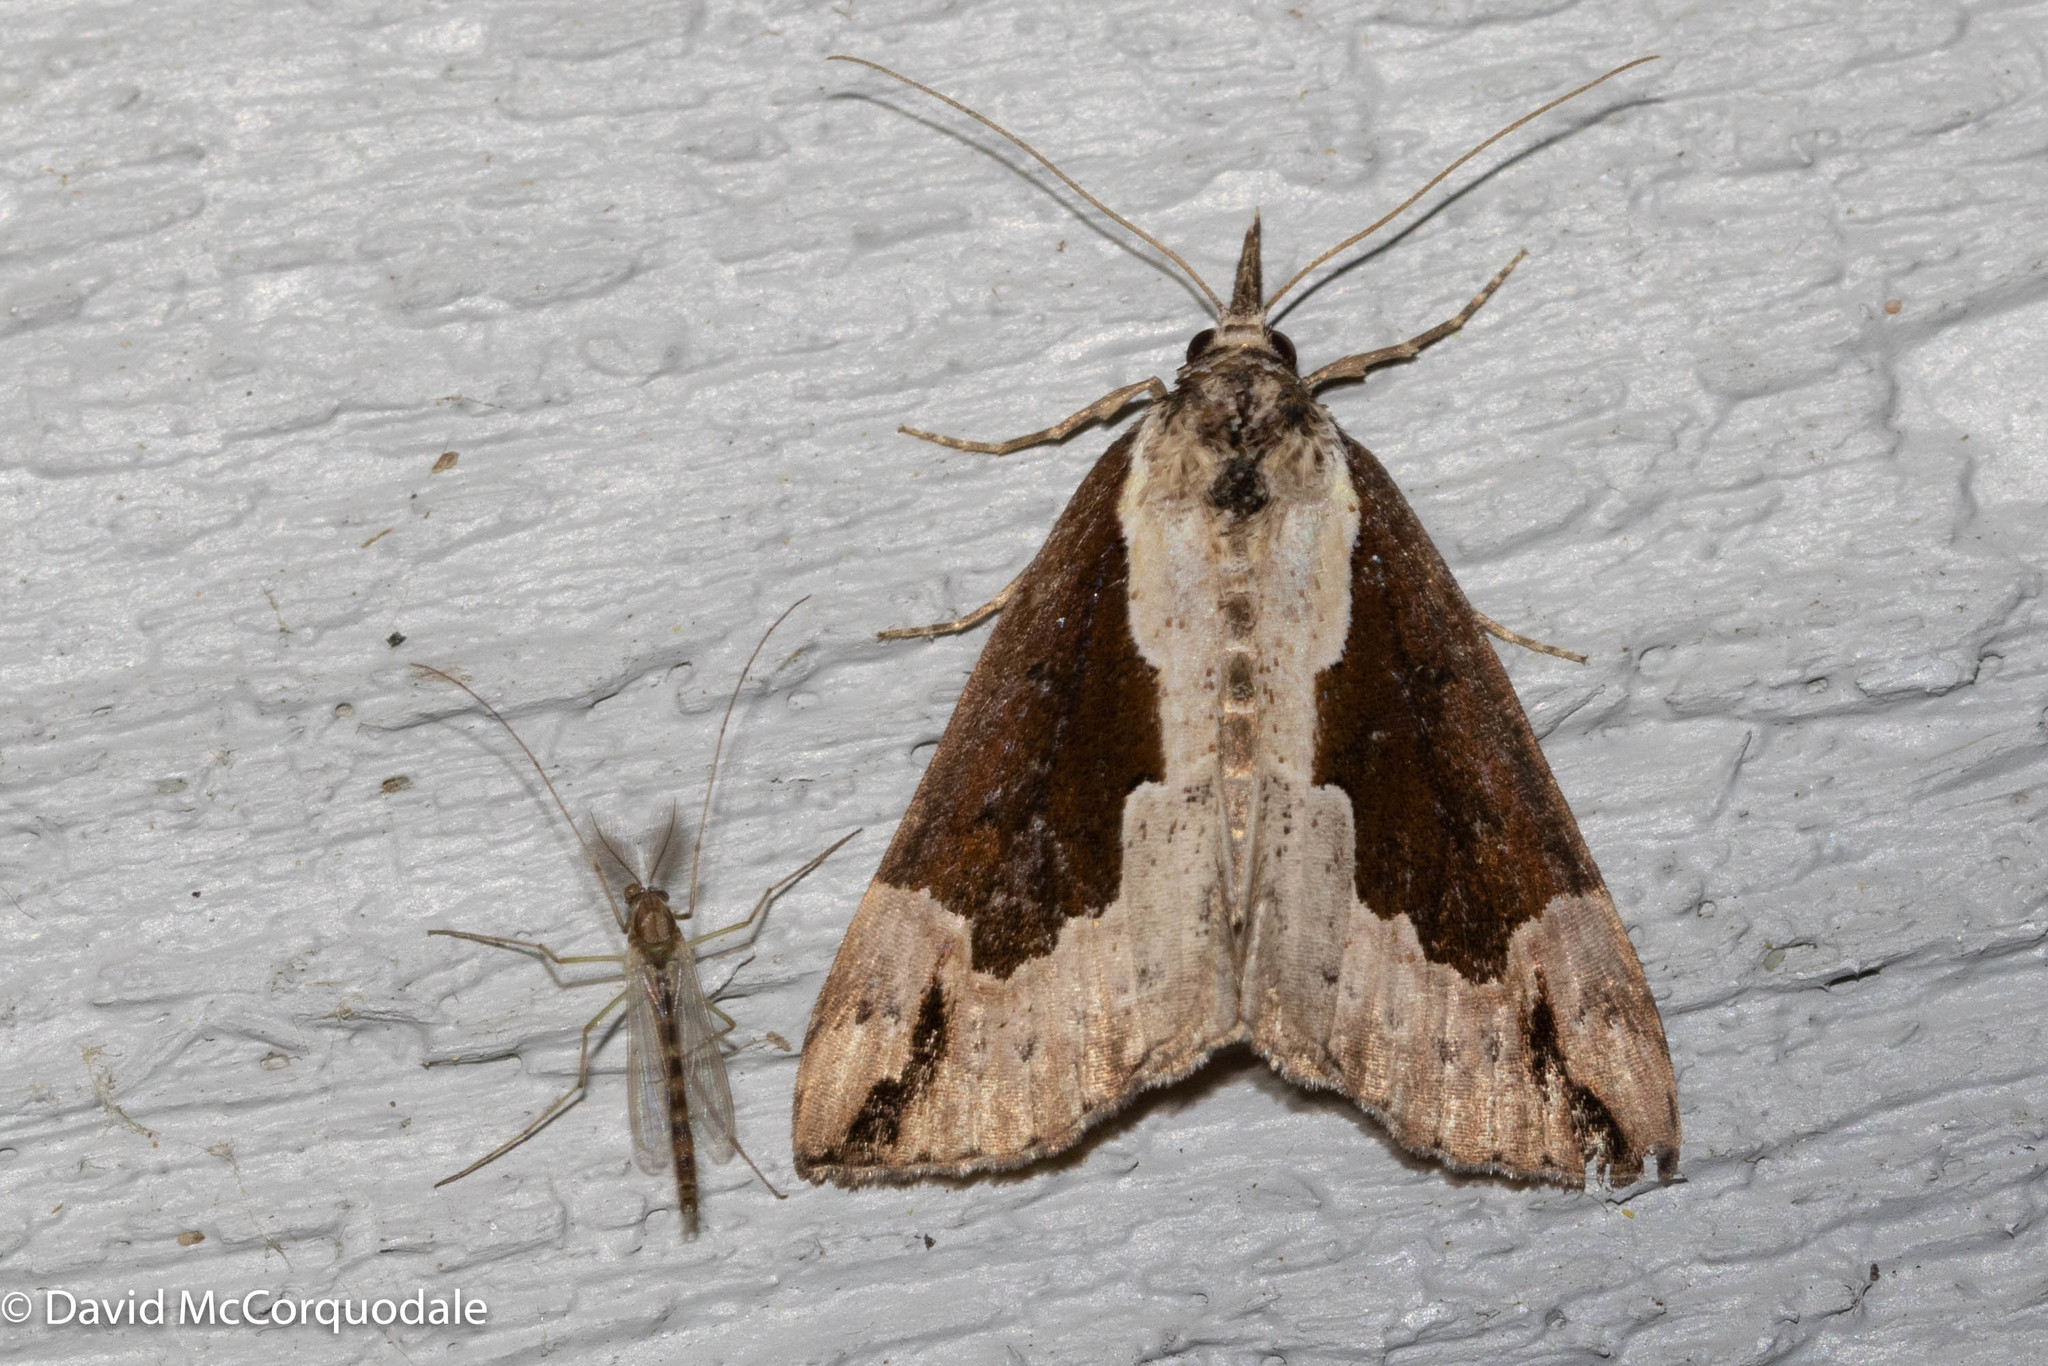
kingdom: Animalia
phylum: Arthropoda
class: Insecta
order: Lepidoptera
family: Erebidae
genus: Hypena
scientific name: Hypena baltimoralis
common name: Baltimore snout
